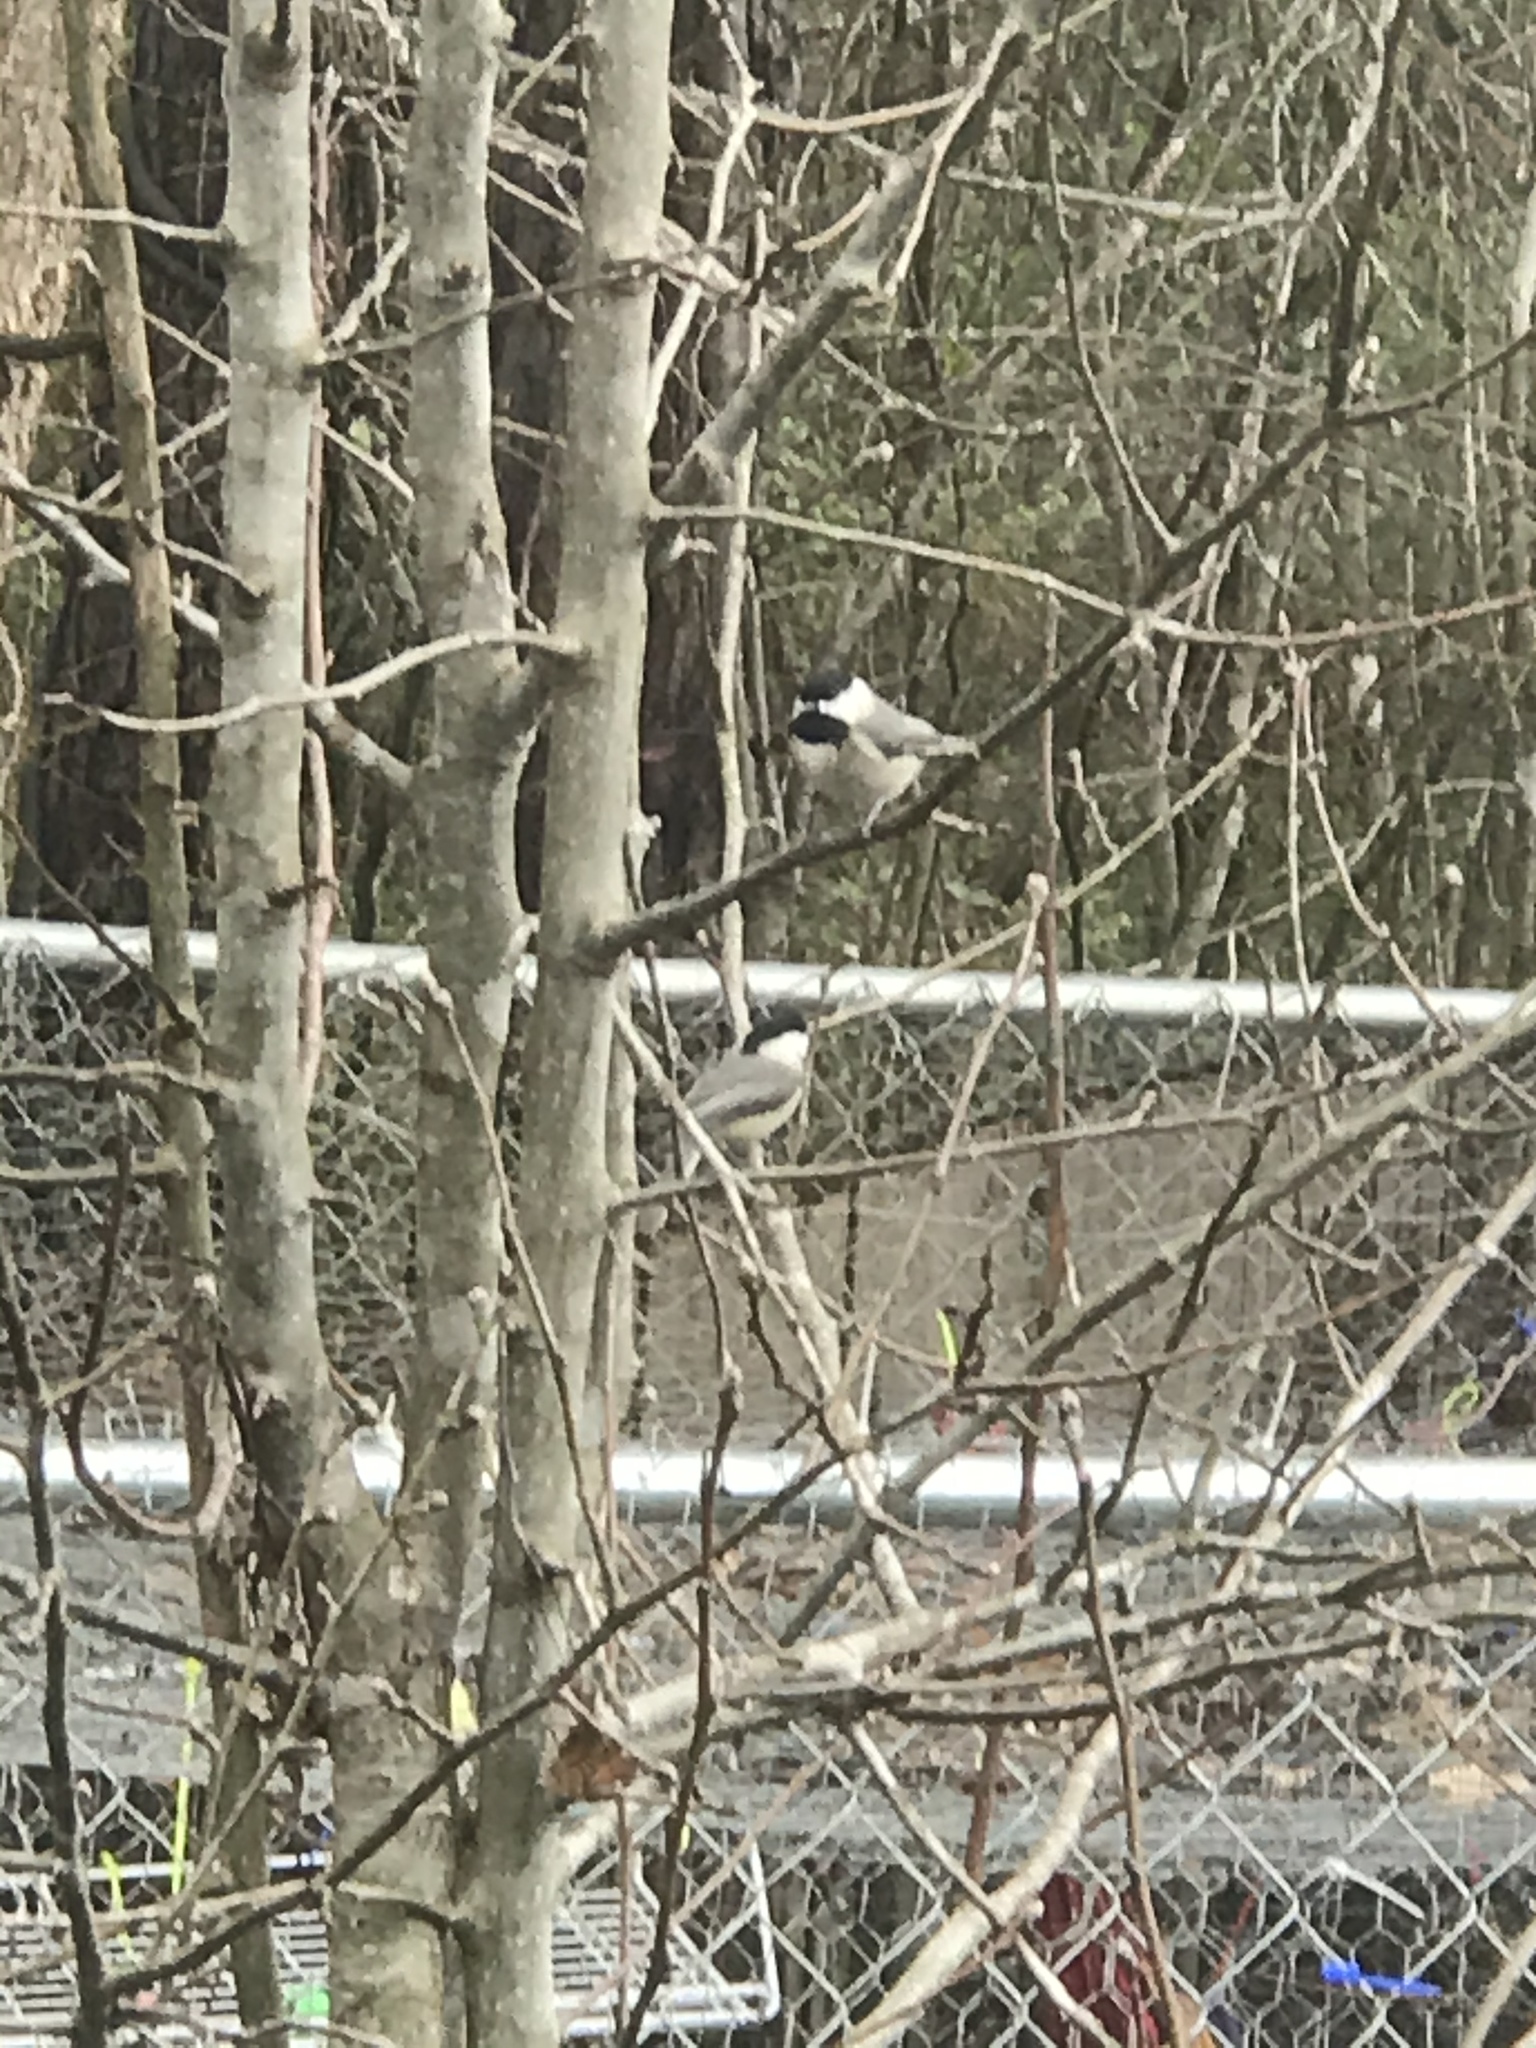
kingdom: Animalia
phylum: Chordata
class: Aves
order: Passeriformes
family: Paridae
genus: Poecile
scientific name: Poecile carolinensis
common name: Carolina chickadee
